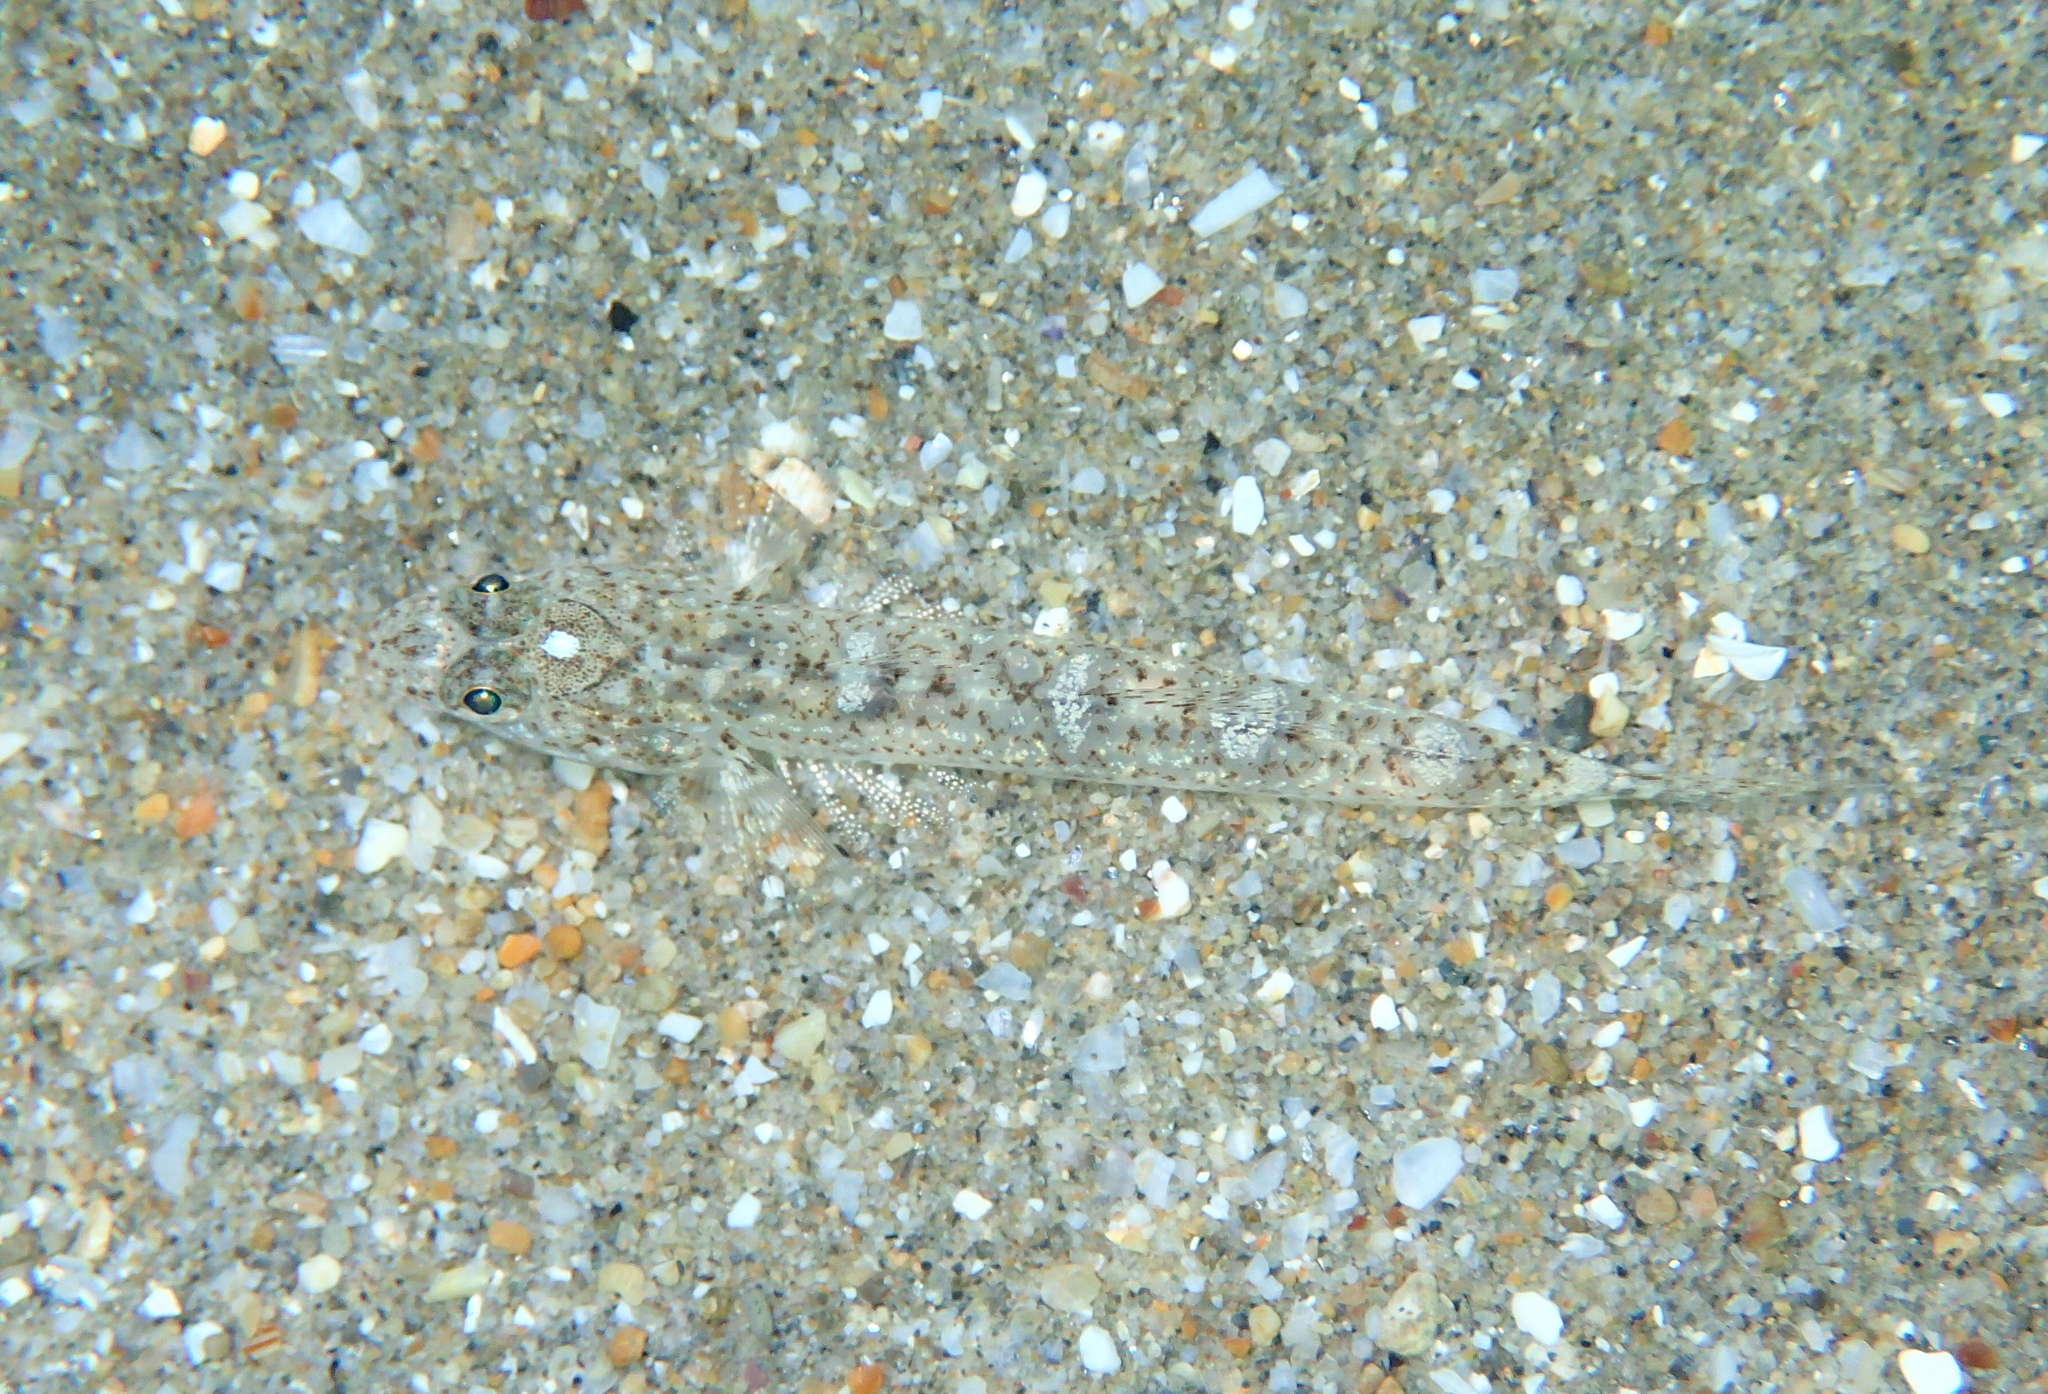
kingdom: Animalia
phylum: Chordata
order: Perciformes
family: Gobiidae
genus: Pomatoschistus
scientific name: Pomatoschistus marmoratus
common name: Marbled goby
